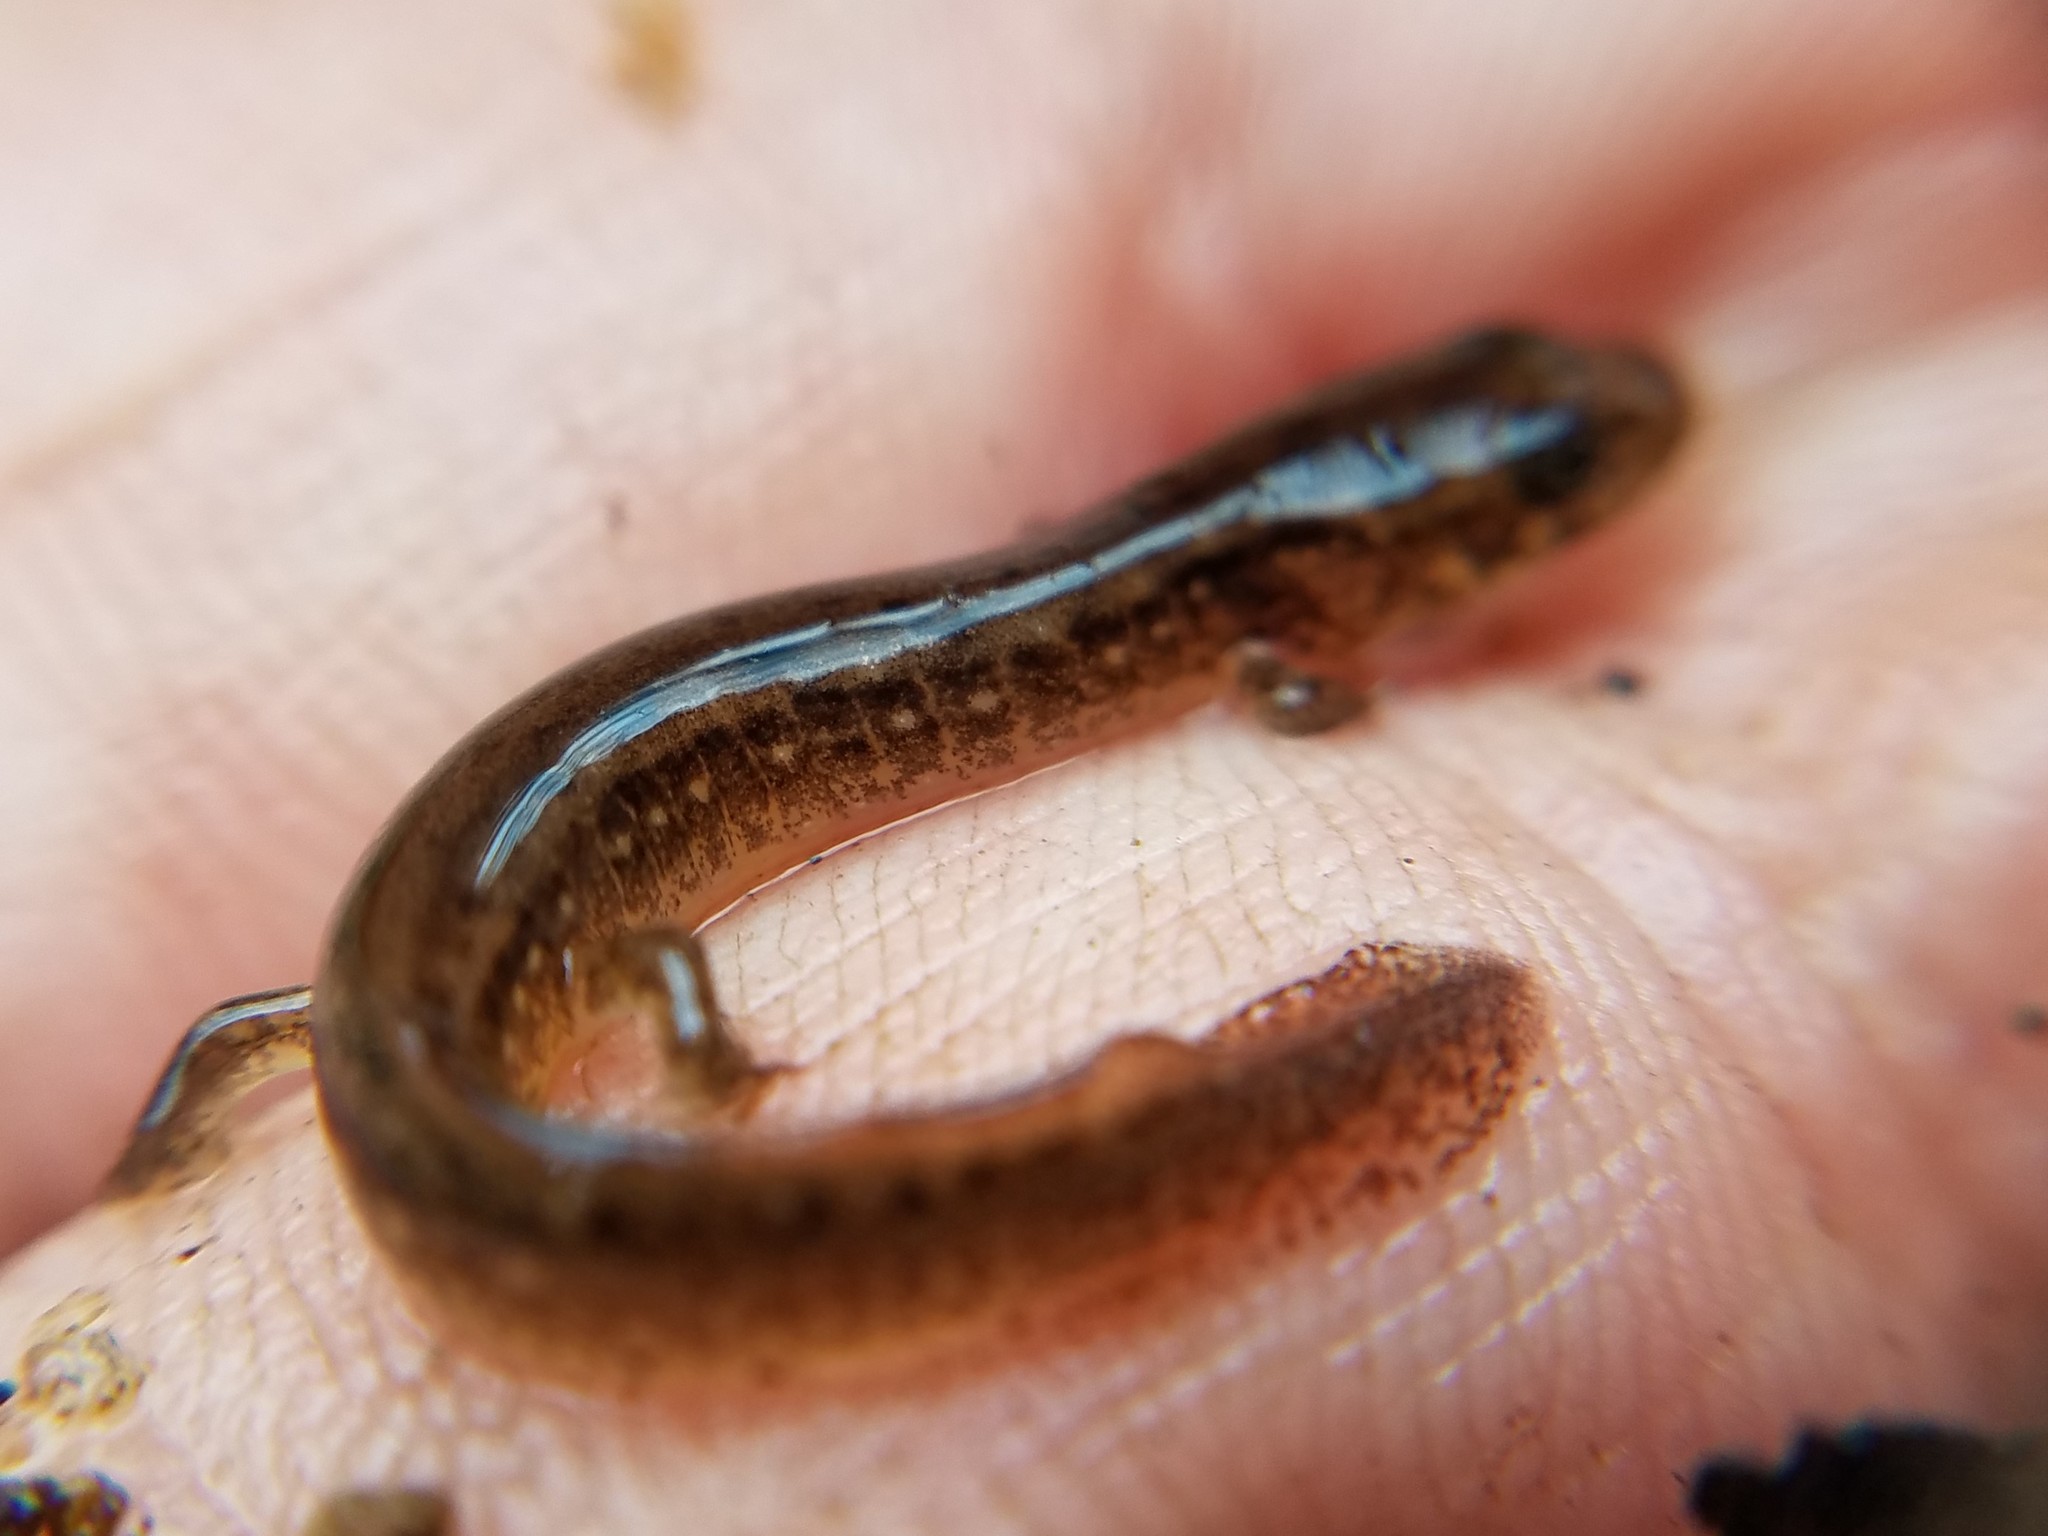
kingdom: Animalia
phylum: Chordata
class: Amphibia
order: Caudata
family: Plethodontidae
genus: Eurycea
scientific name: Eurycea wilderae
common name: Blue ridge two-lined salamander
